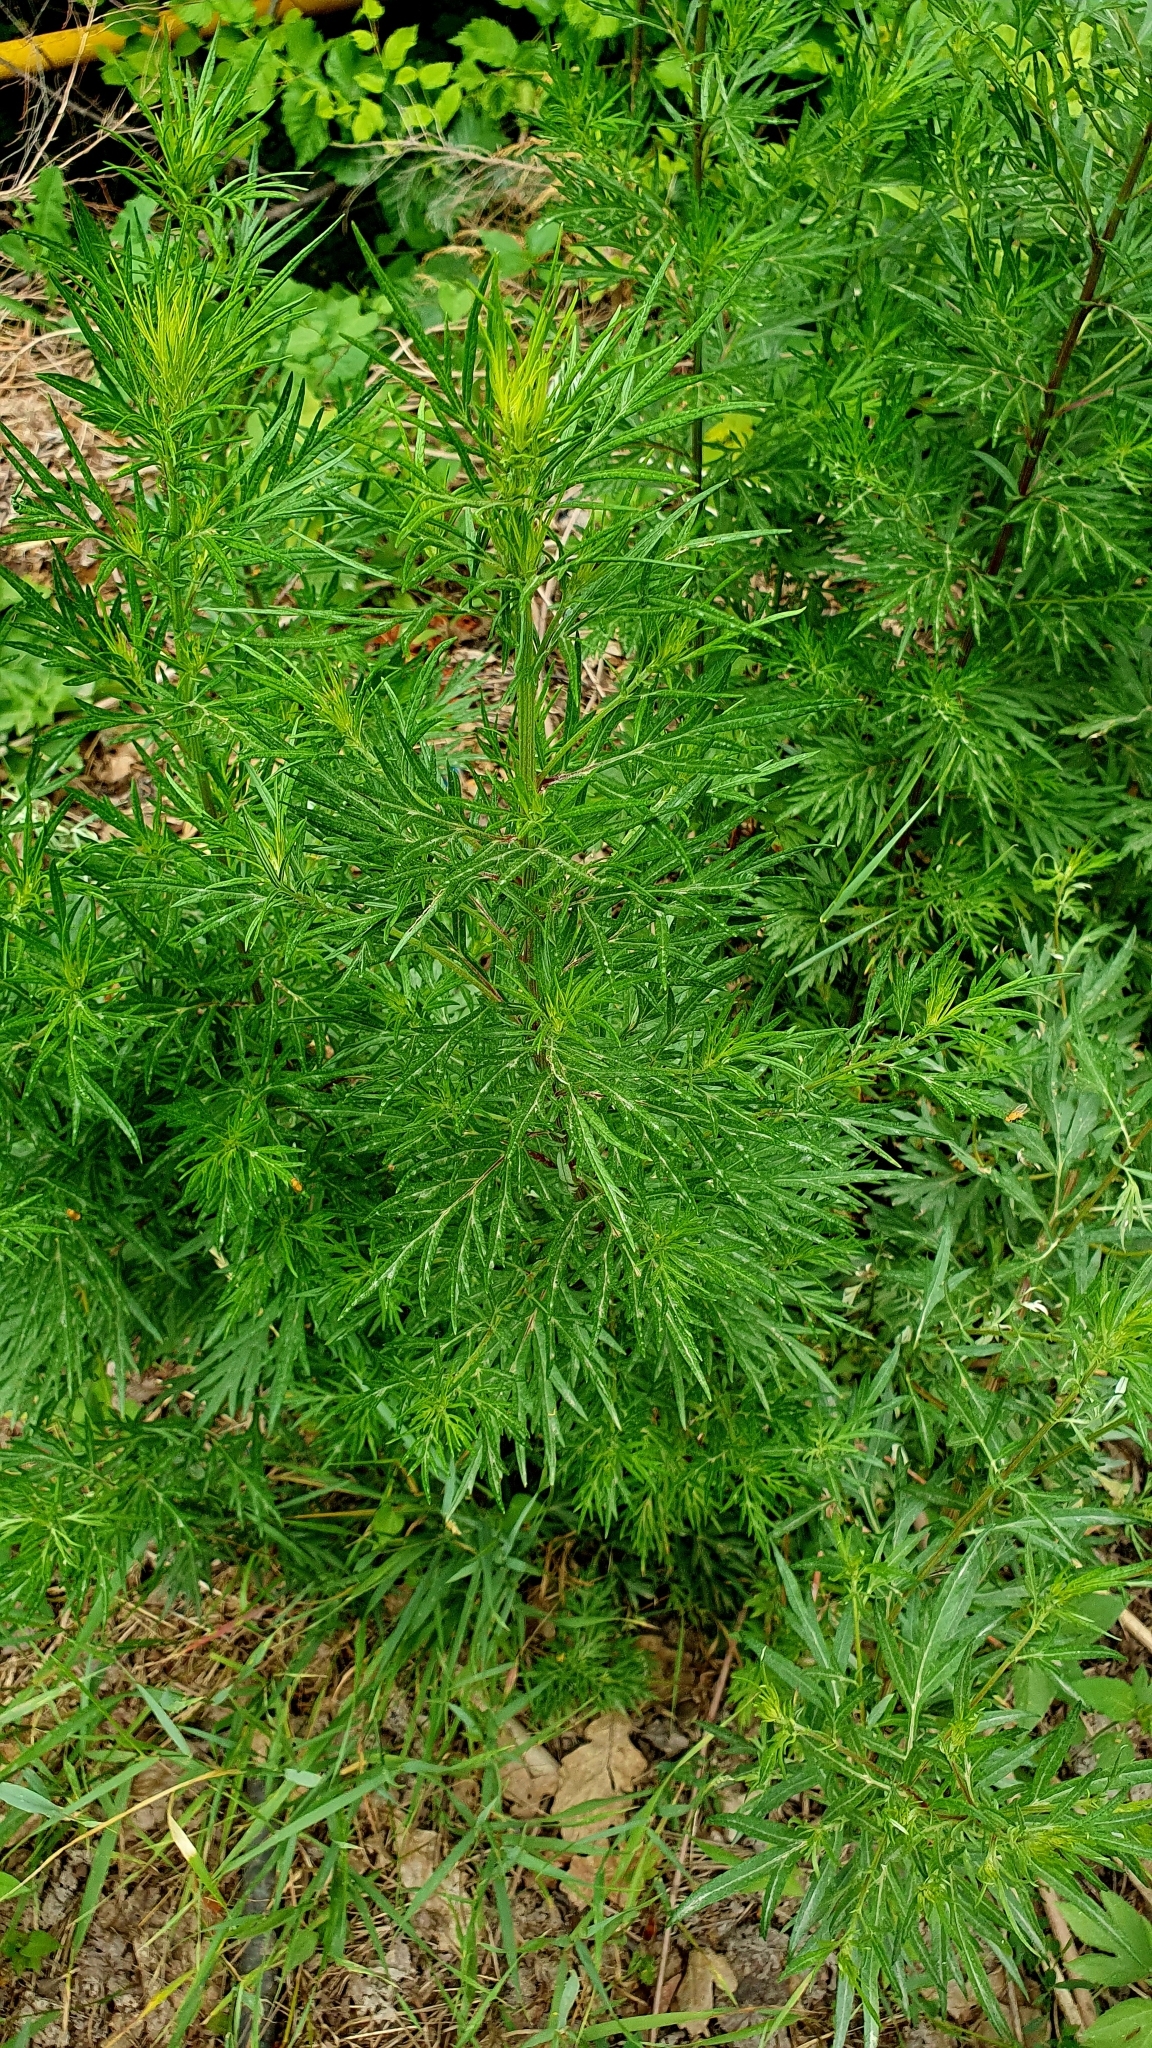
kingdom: Plantae
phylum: Tracheophyta
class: Magnoliopsida
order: Asterales
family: Asteraceae
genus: Artemisia
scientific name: Artemisia vulgaris
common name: Mugwort
